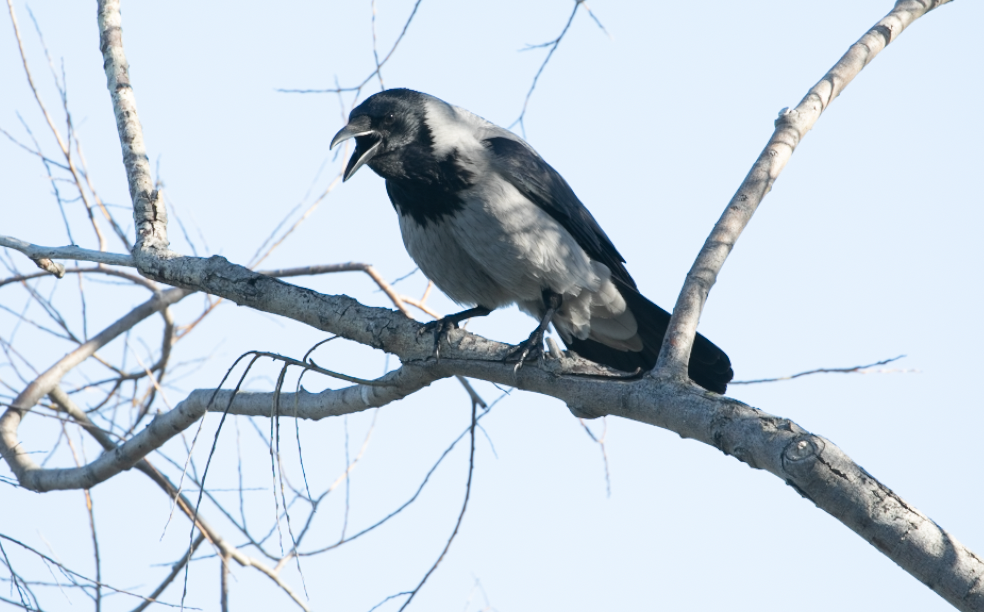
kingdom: Animalia
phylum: Chordata
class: Aves
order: Passeriformes
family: Corvidae
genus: Corvus
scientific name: Corvus cornix
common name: Hooded crow
